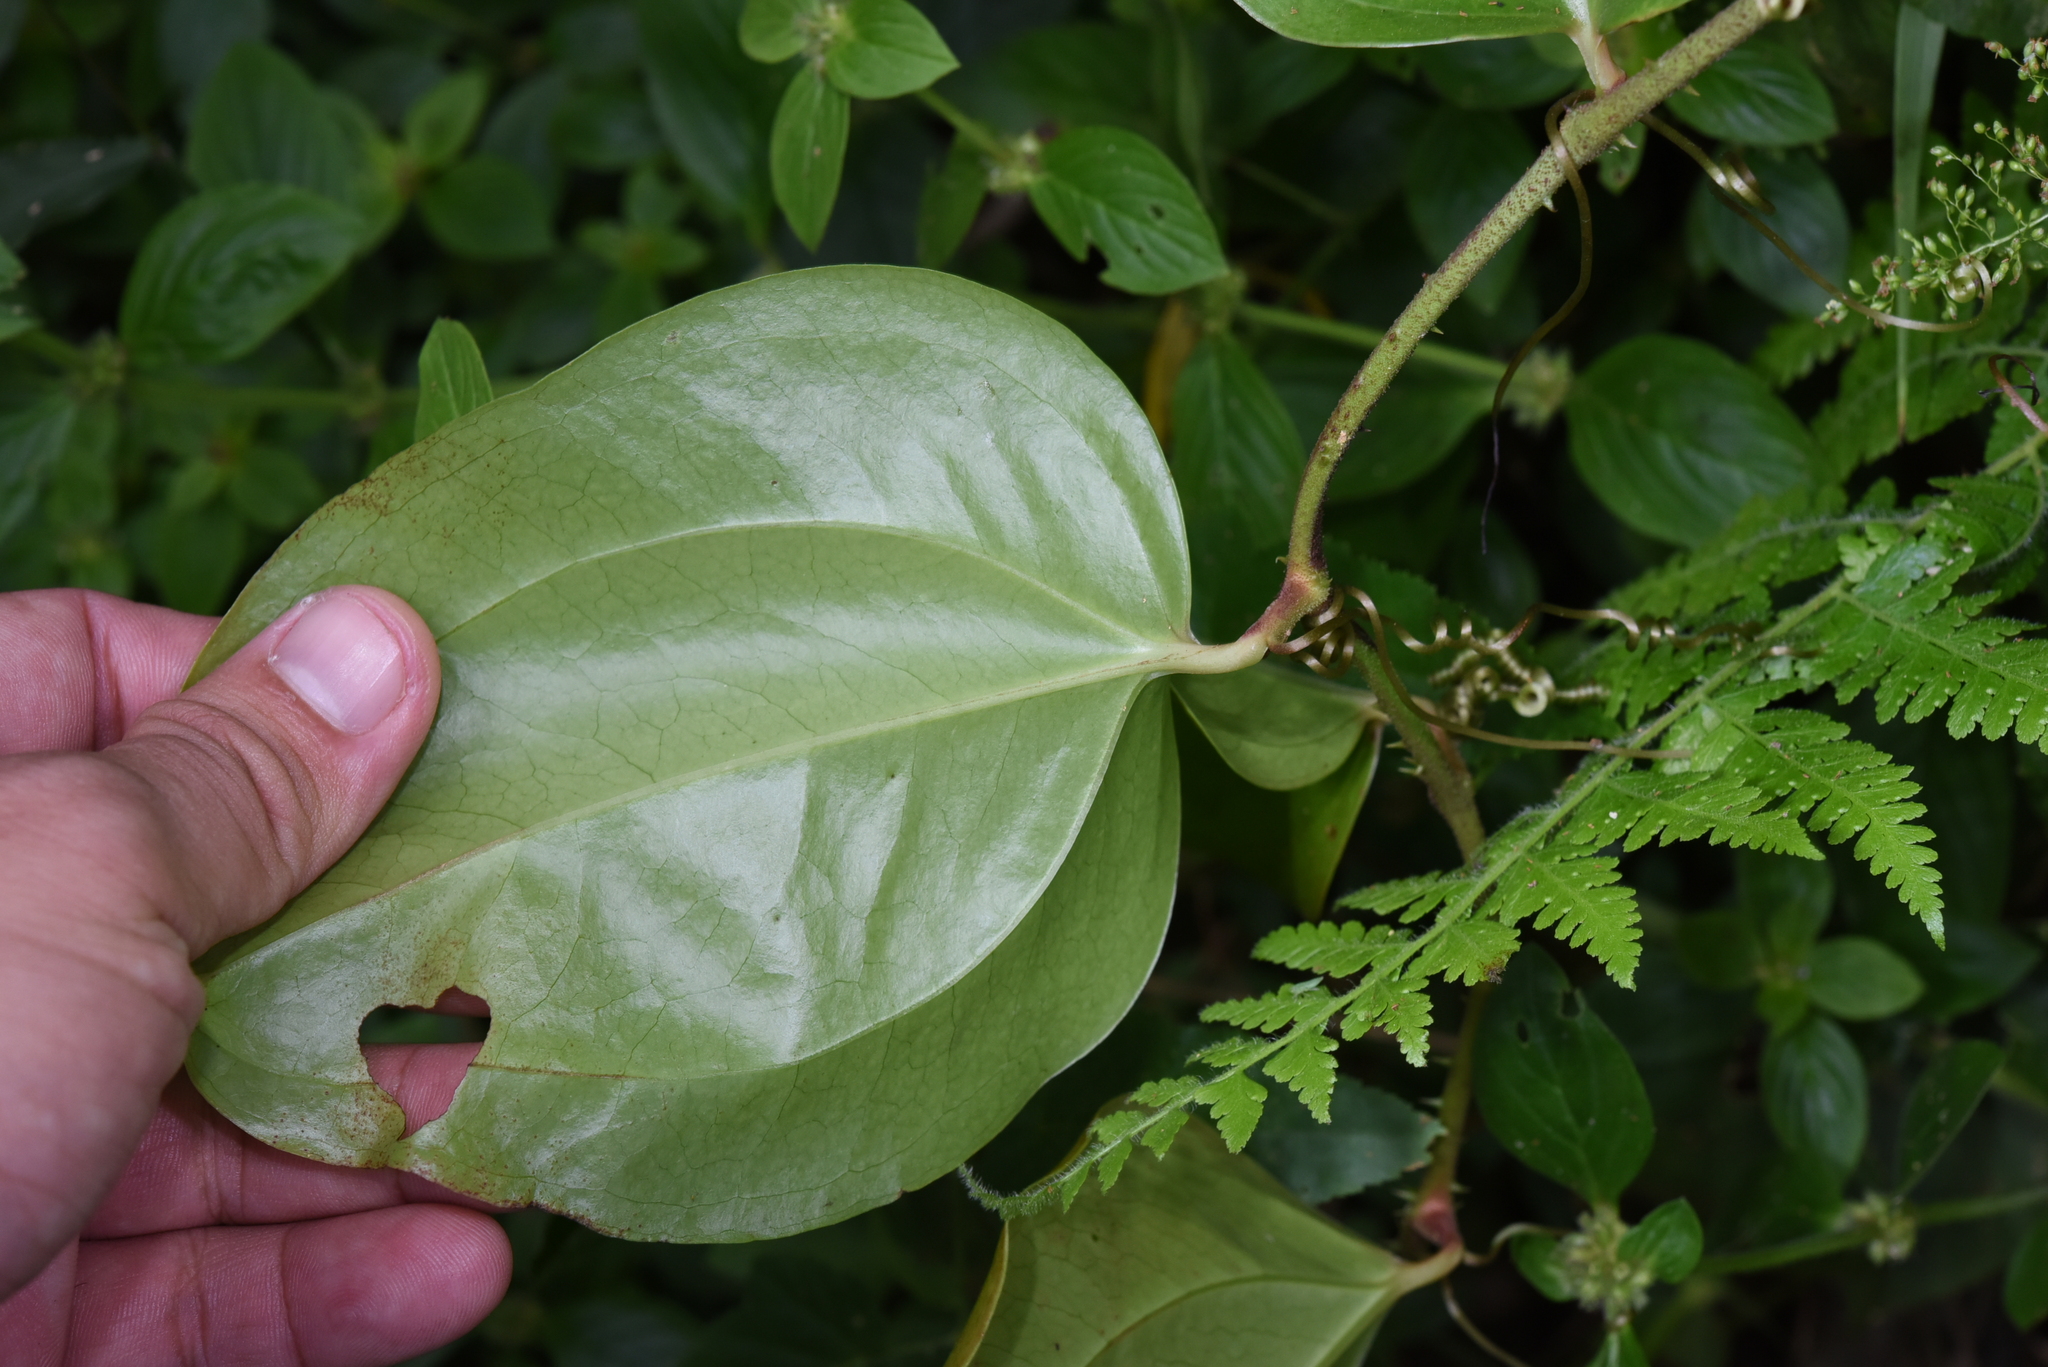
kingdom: Plantae
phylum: Tracheophyta
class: Liliopsida
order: Liliales
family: Smilacaceae
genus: Smilax
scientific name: Smilax aspericaulis
